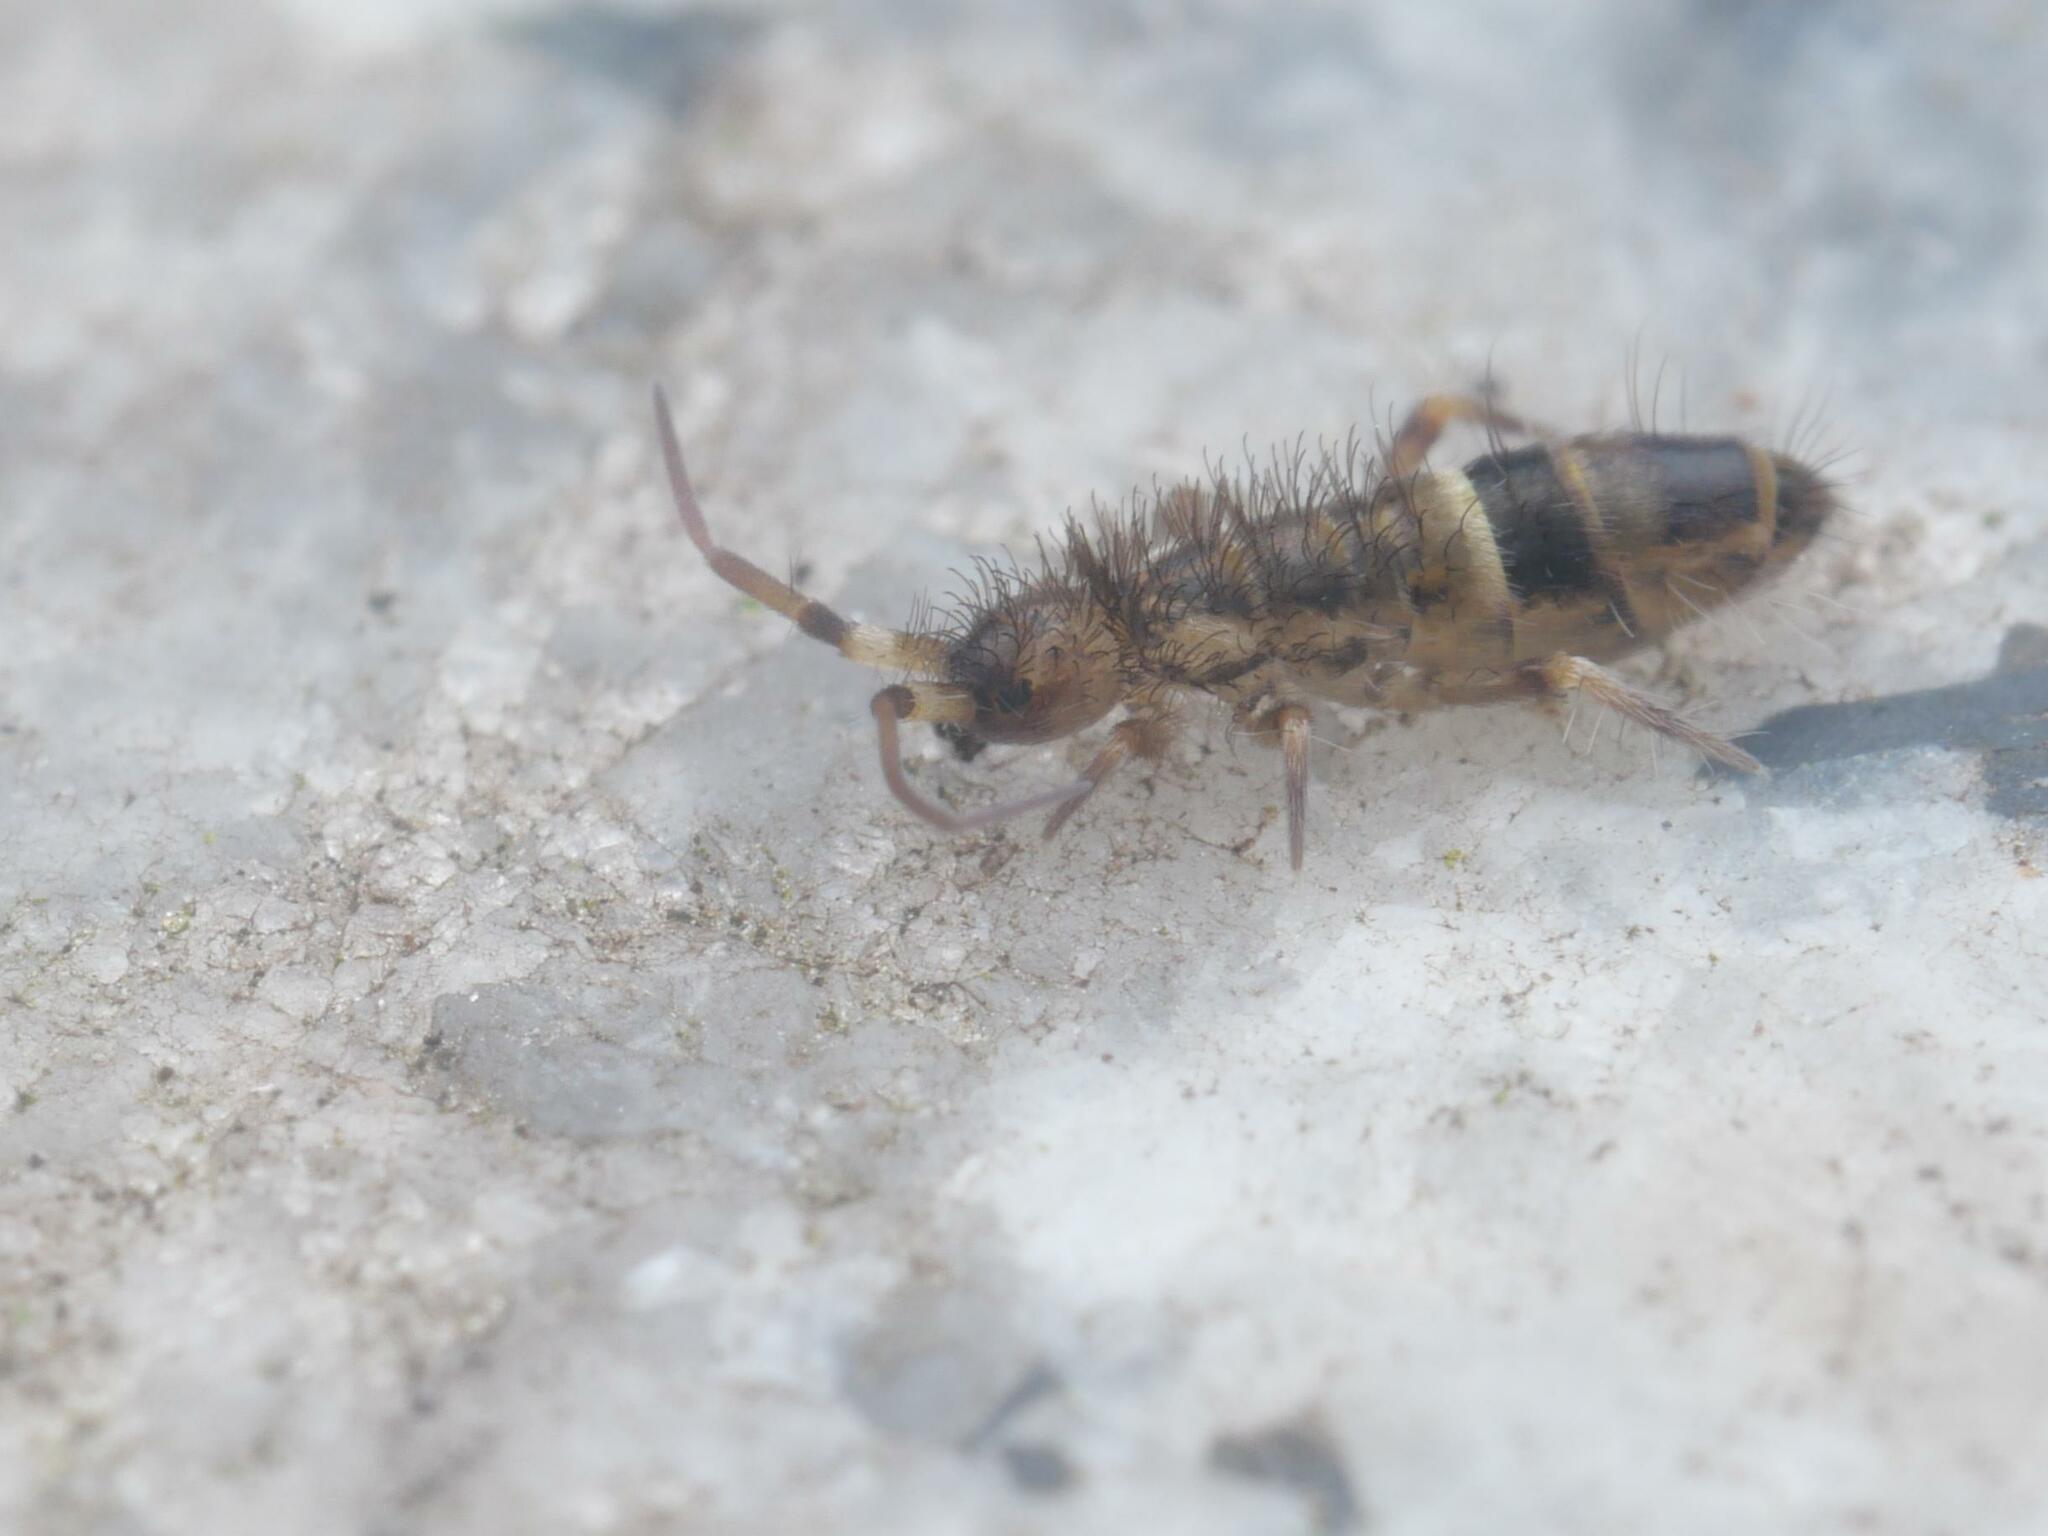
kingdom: Animalia
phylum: Arthropoda
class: Collembola
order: Entomobryomorpha
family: Orchesellidae
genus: Orchesella
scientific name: Orchesella cincta
